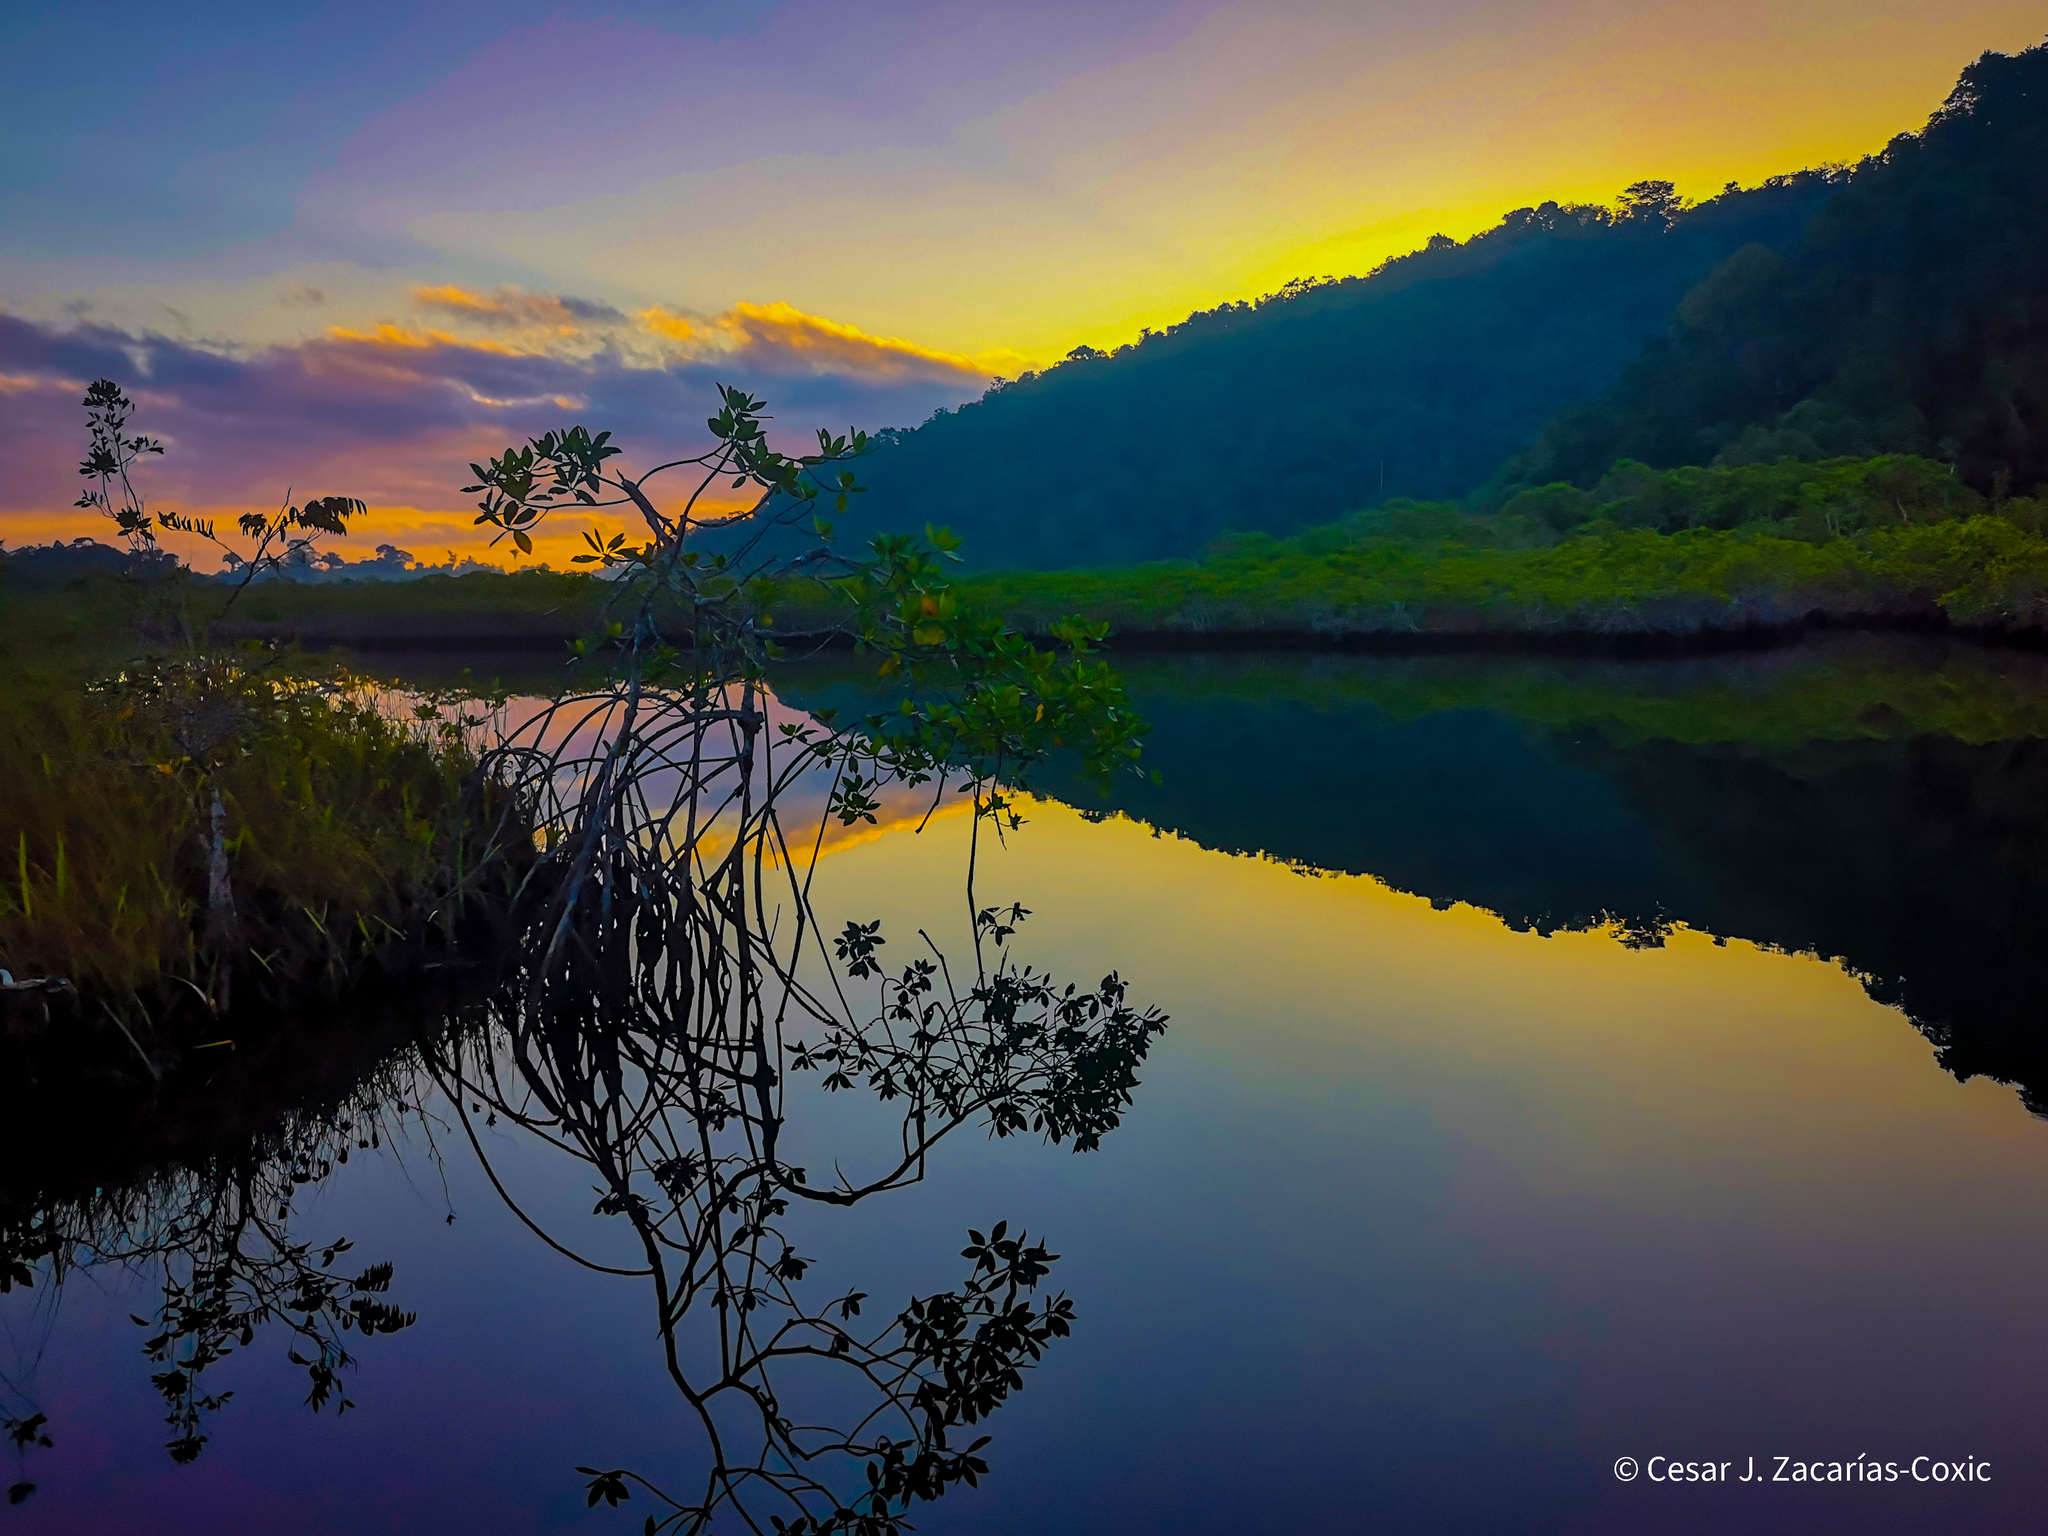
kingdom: Plantae
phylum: Tracheophyta
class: Magnoliopsida
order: Malpighiales
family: Rhizophoraceae
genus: Rhizophora
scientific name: Rhizophora mangle
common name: Red mangrove
